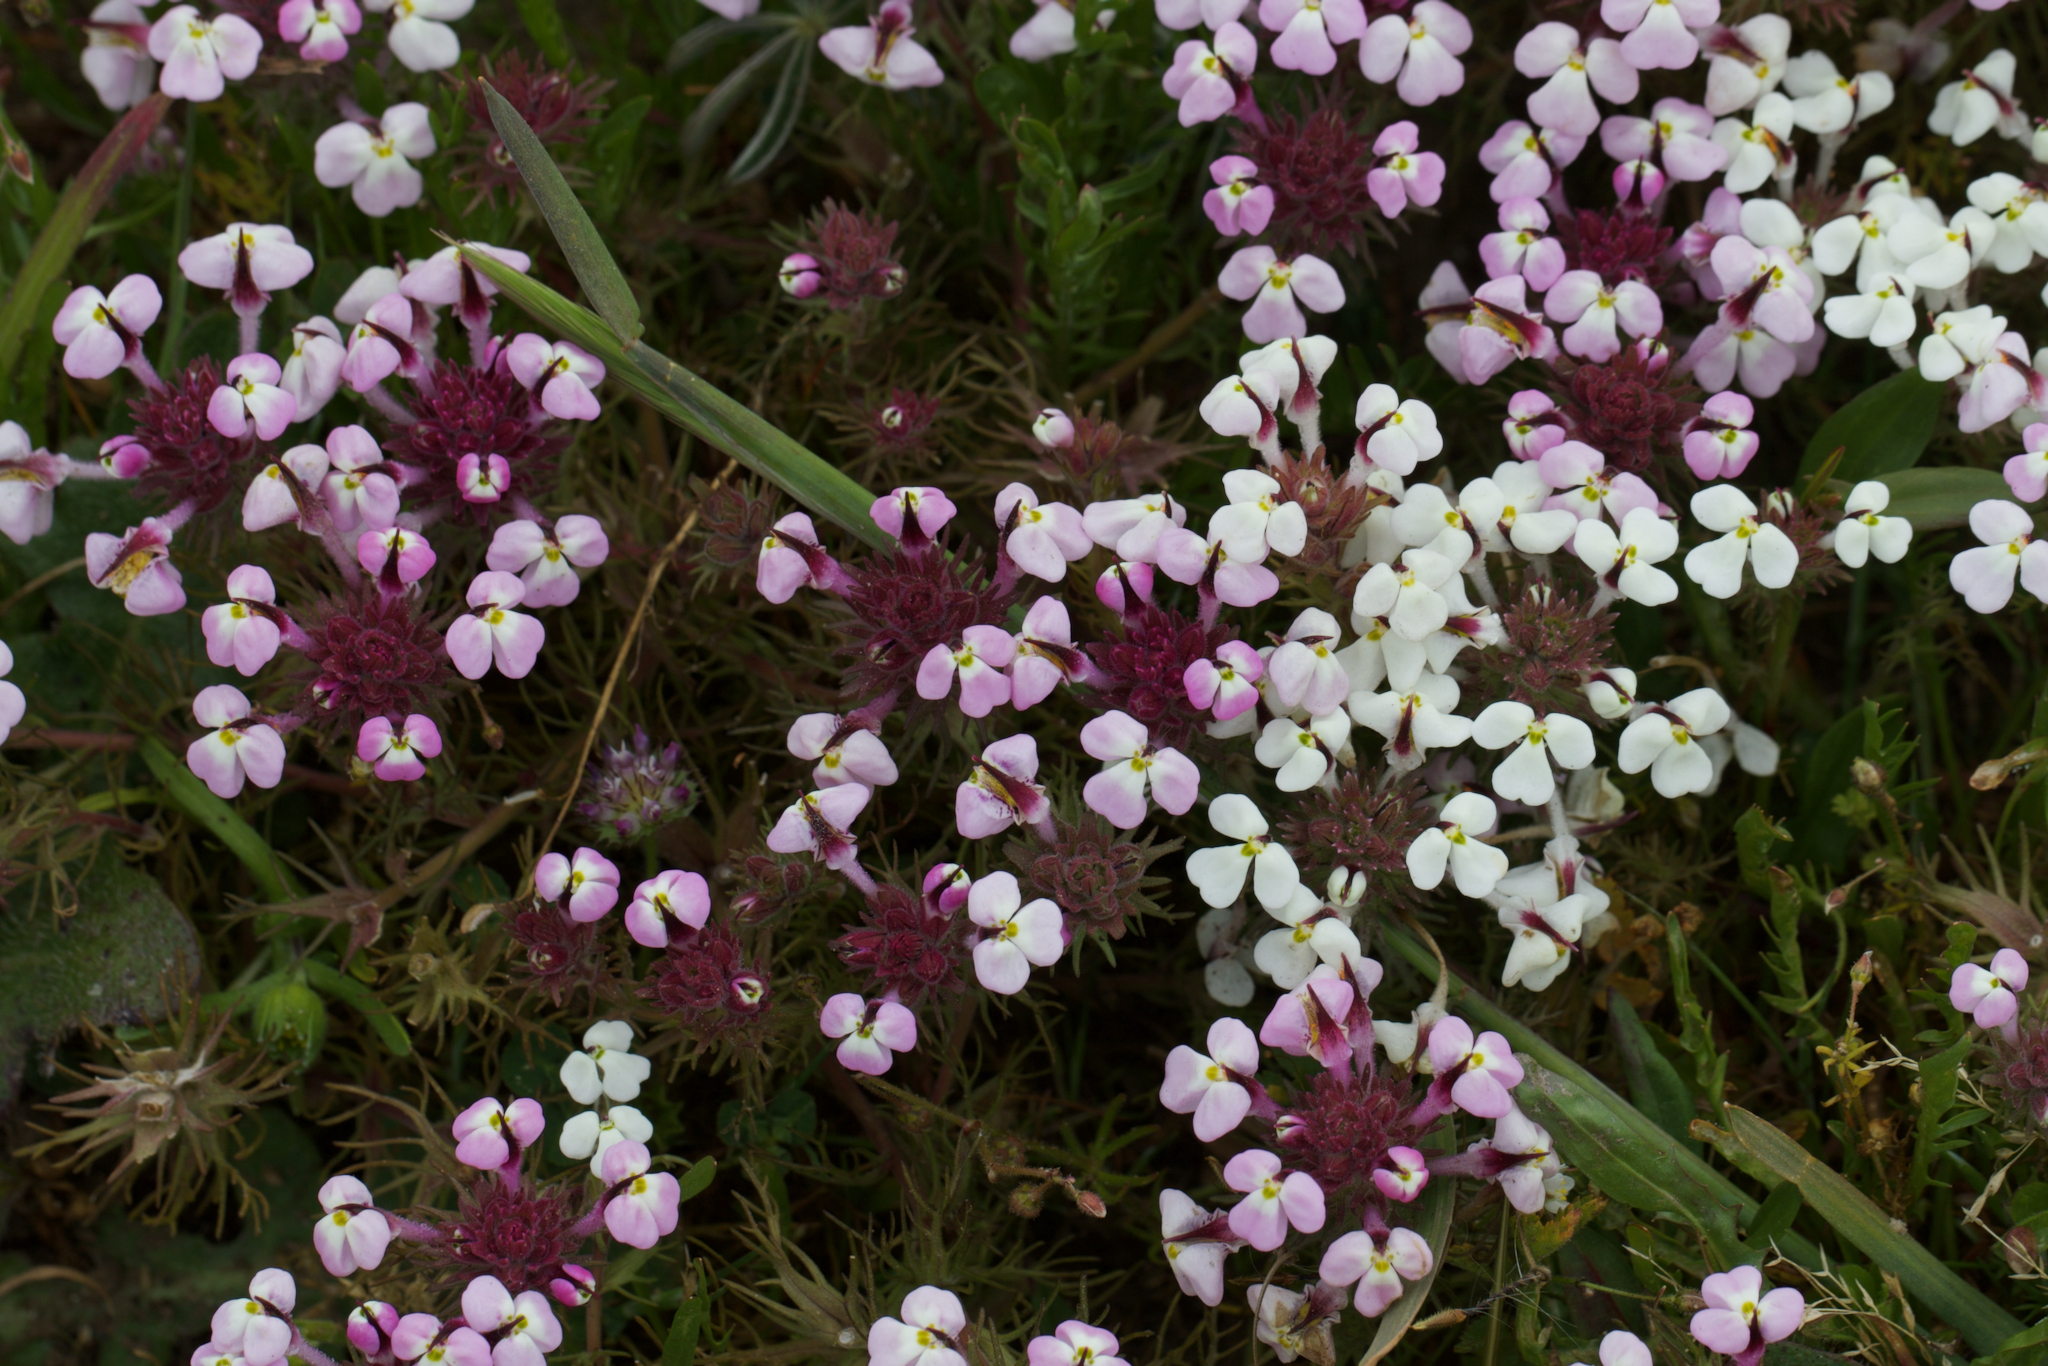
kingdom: Plantae
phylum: Tracheophyta
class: Magnoliopsida
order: Lamiales
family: Orobanchaceae
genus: Triphysaria
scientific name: Triphysaria eriantha
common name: Johnny-tuck
